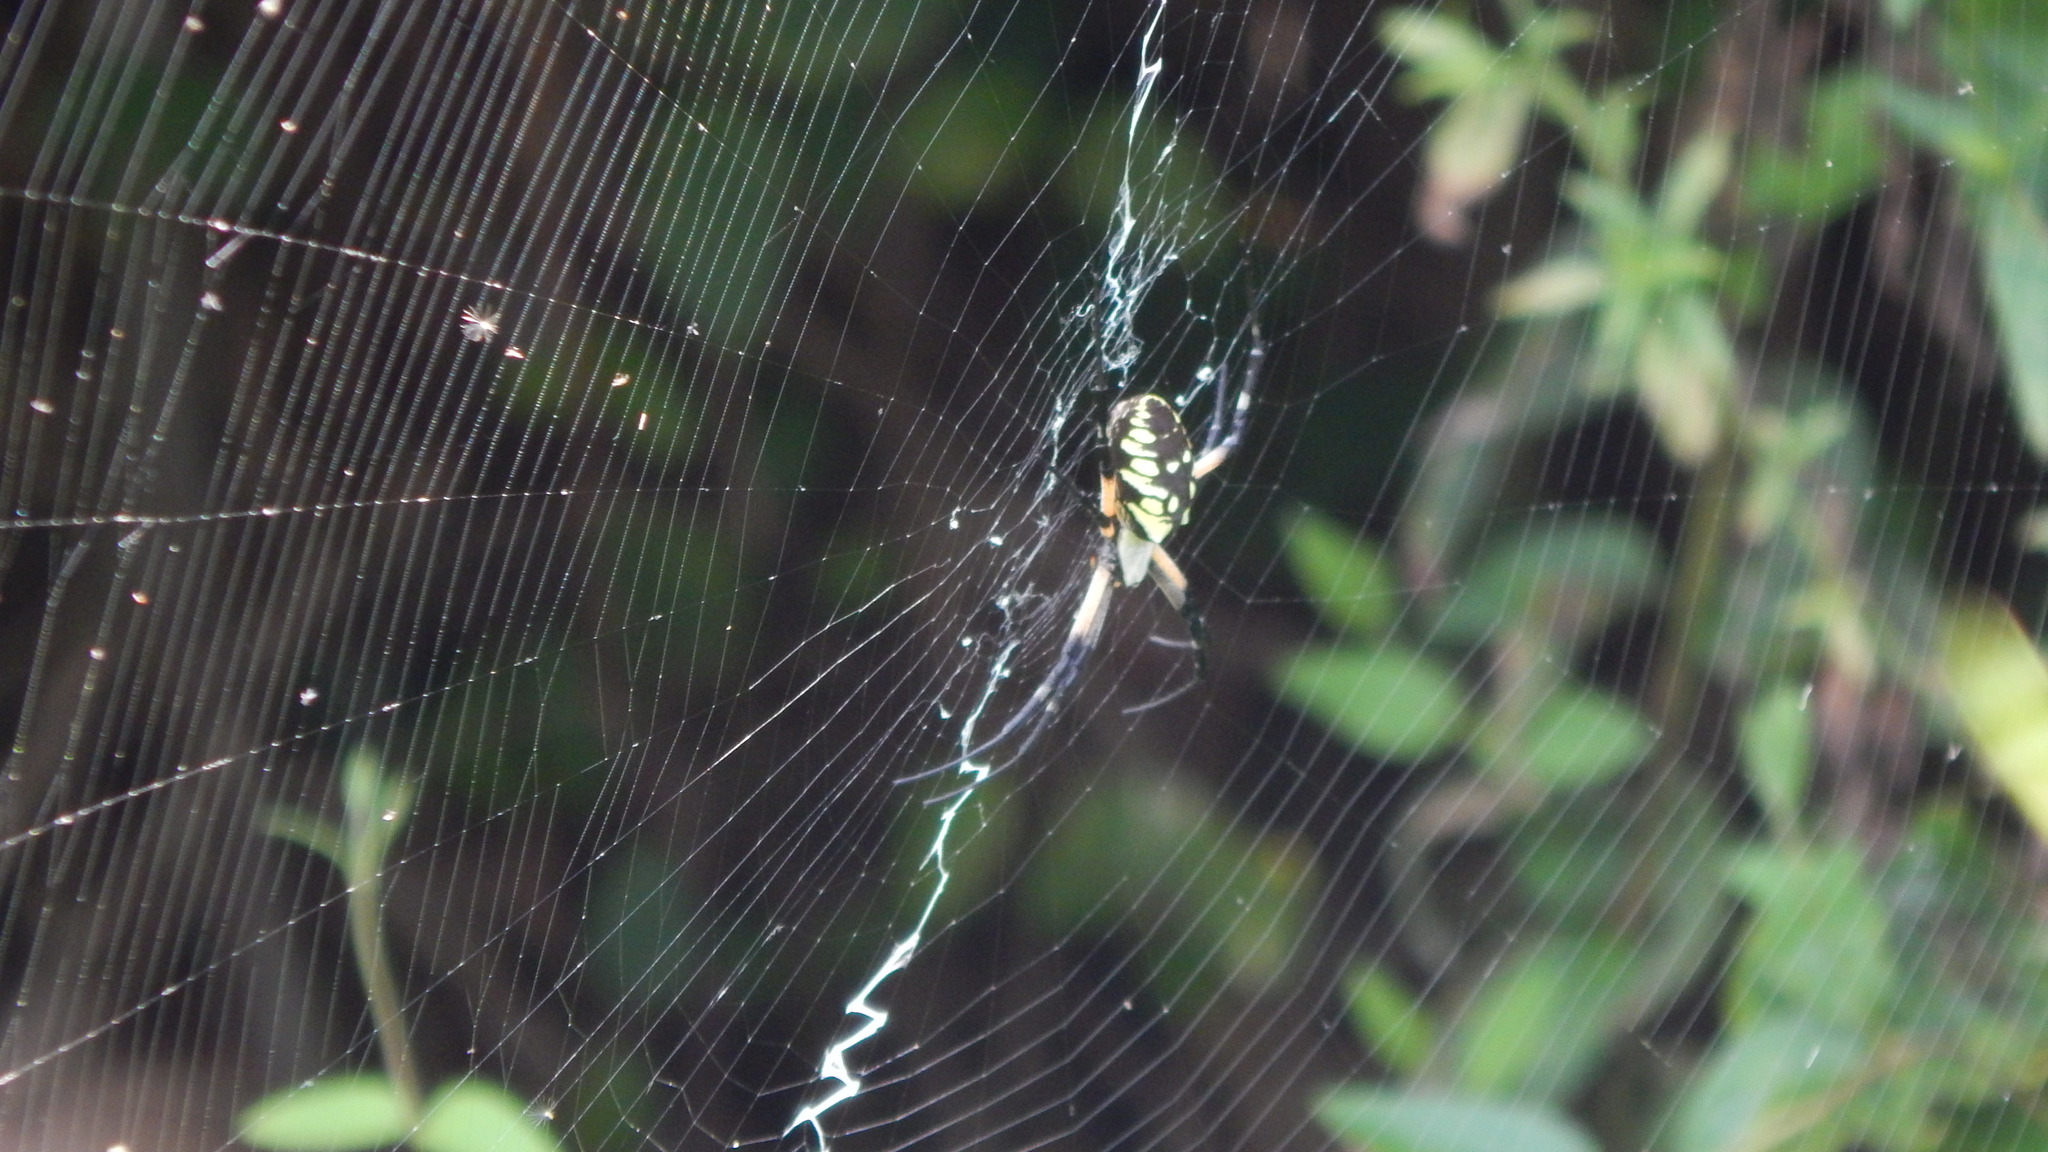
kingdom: Animalia
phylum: Arthropoda
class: Arachnida
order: Araneae
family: Araneidae
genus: Argiope
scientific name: Argiope aurantia
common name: Orb weavers
